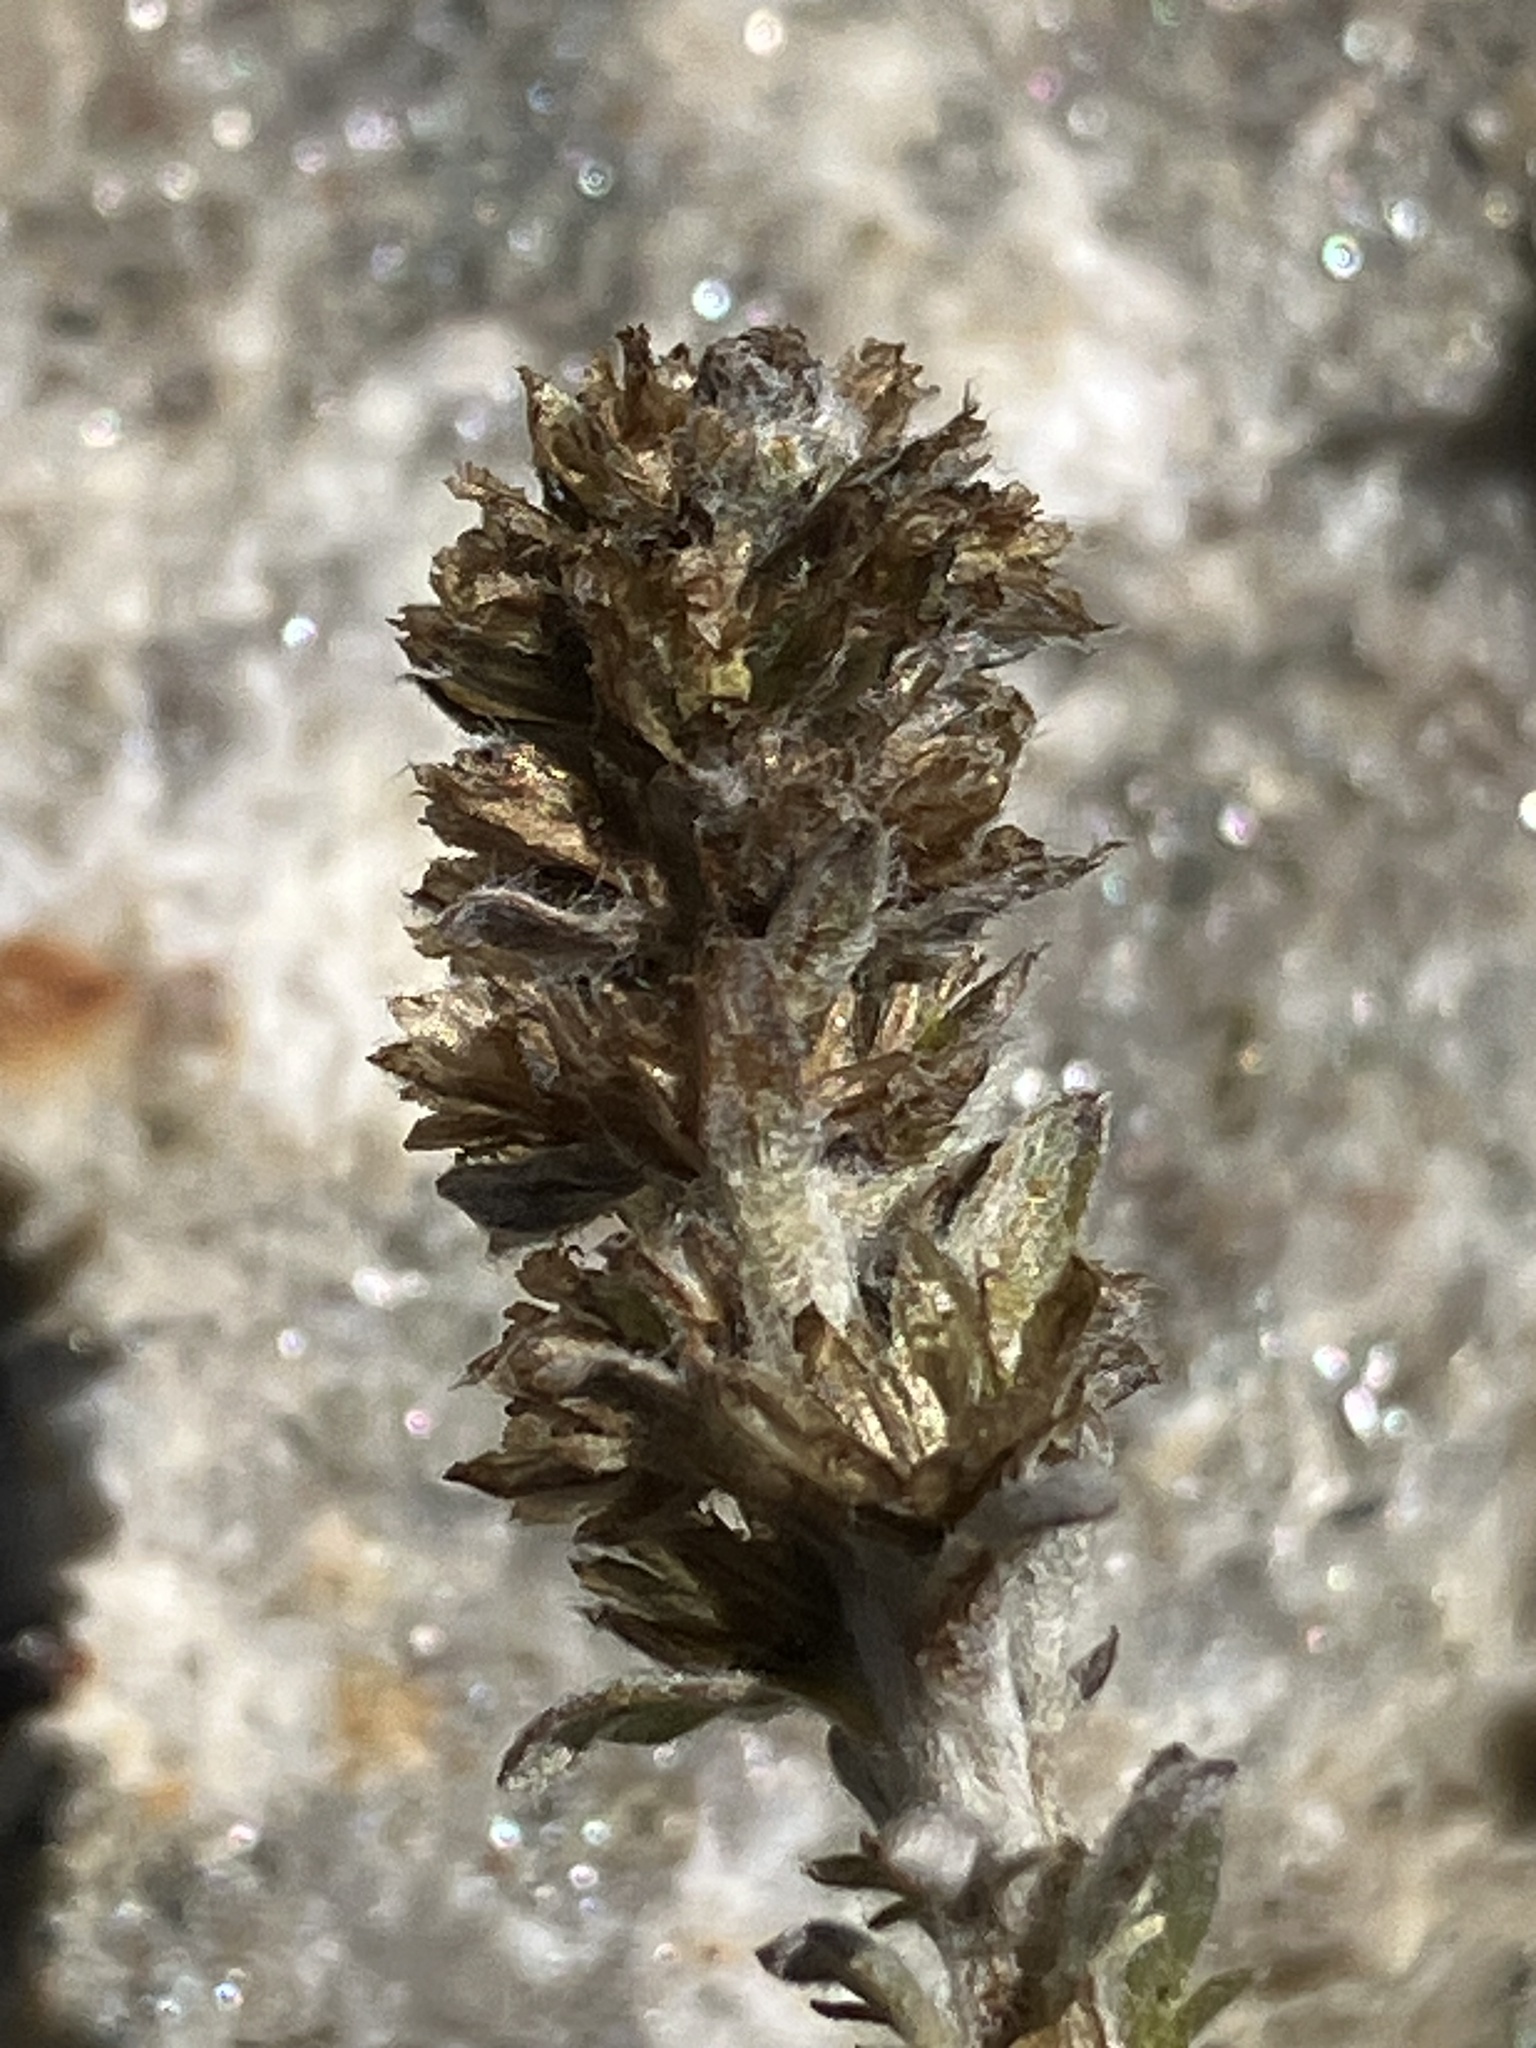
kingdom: Plantae
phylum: Tracheophyta
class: Magnoliopsida
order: Asterales
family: Asteraceae
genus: Artemisia
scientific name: Artemisia genipi
